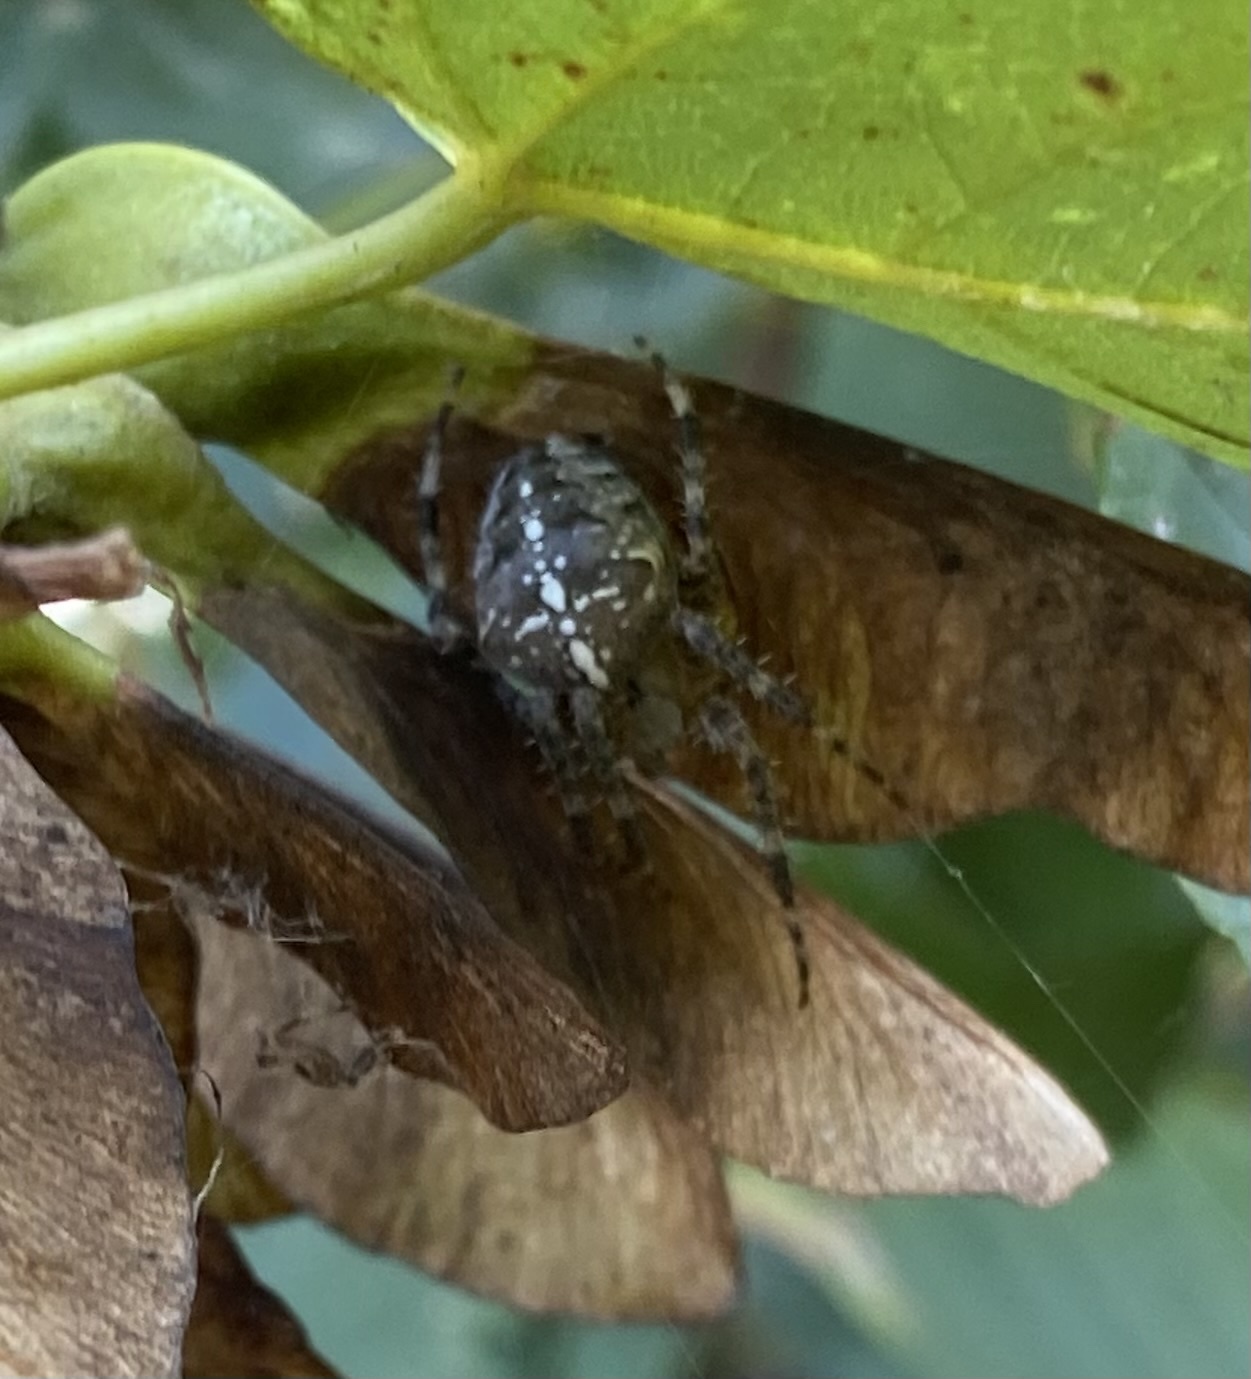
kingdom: Animalia
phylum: Arthropoda
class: Arachnida
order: Araneae
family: Araneidae
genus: Araneus
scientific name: Araneus diadematus
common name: Cross orbweaver
